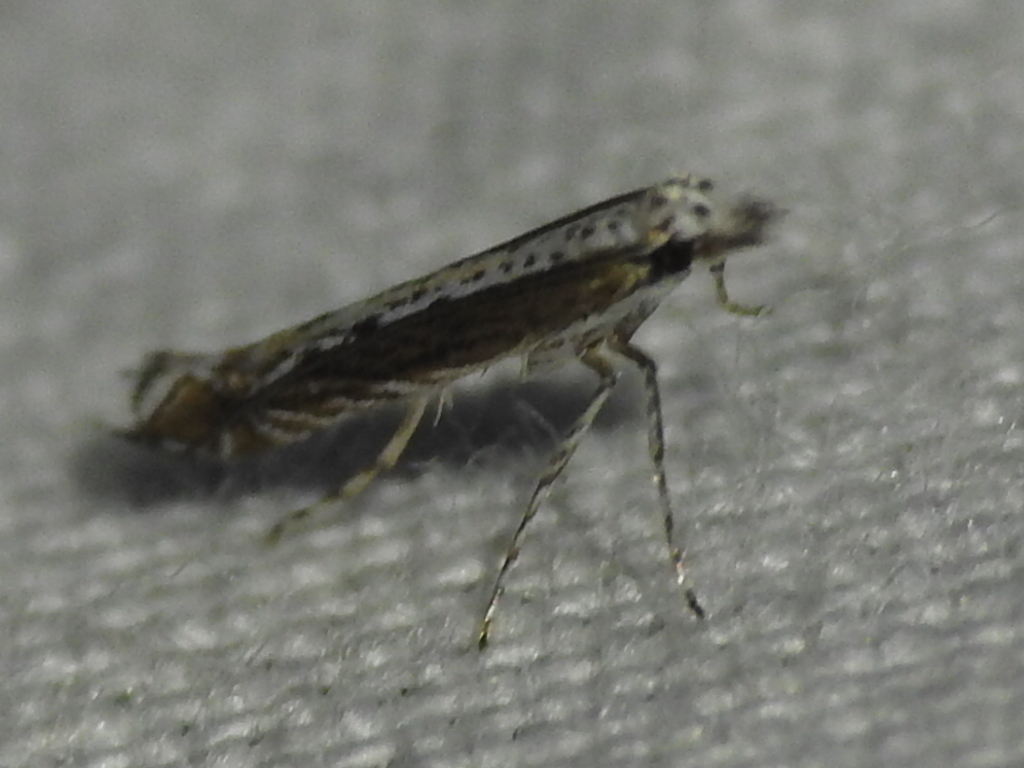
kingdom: Plantae
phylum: Rhodophyta
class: Florideophyceae
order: Gracilariales
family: Gracilariaceae
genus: Gracilaria
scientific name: Gracilaria
